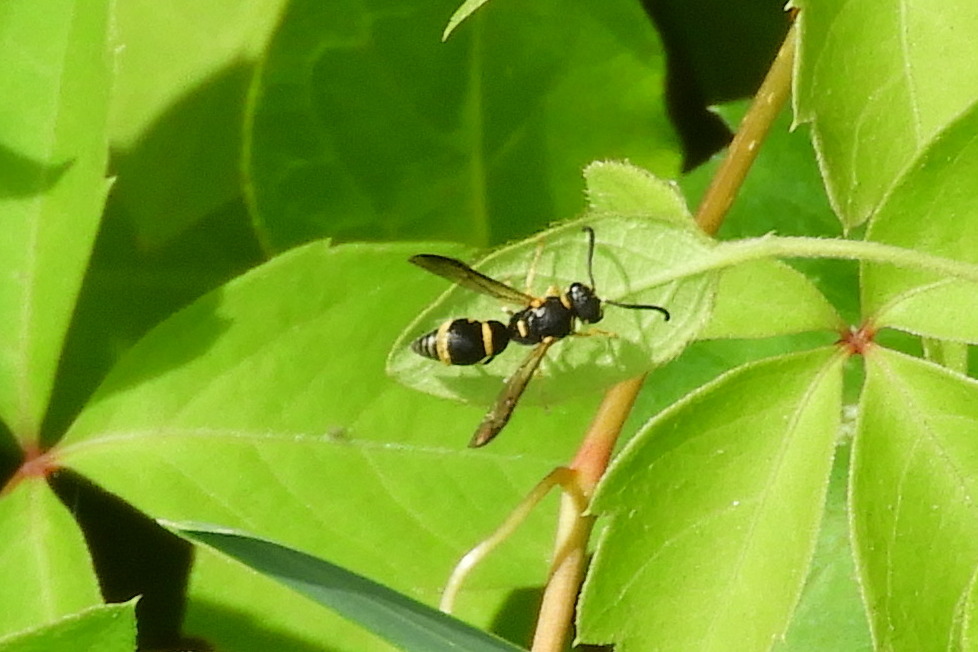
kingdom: Animalia
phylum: Arthropoda
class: Insecta
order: Hymenoptera
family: Eumenidae
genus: Parancistrocerus
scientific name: Parancistrocerus
